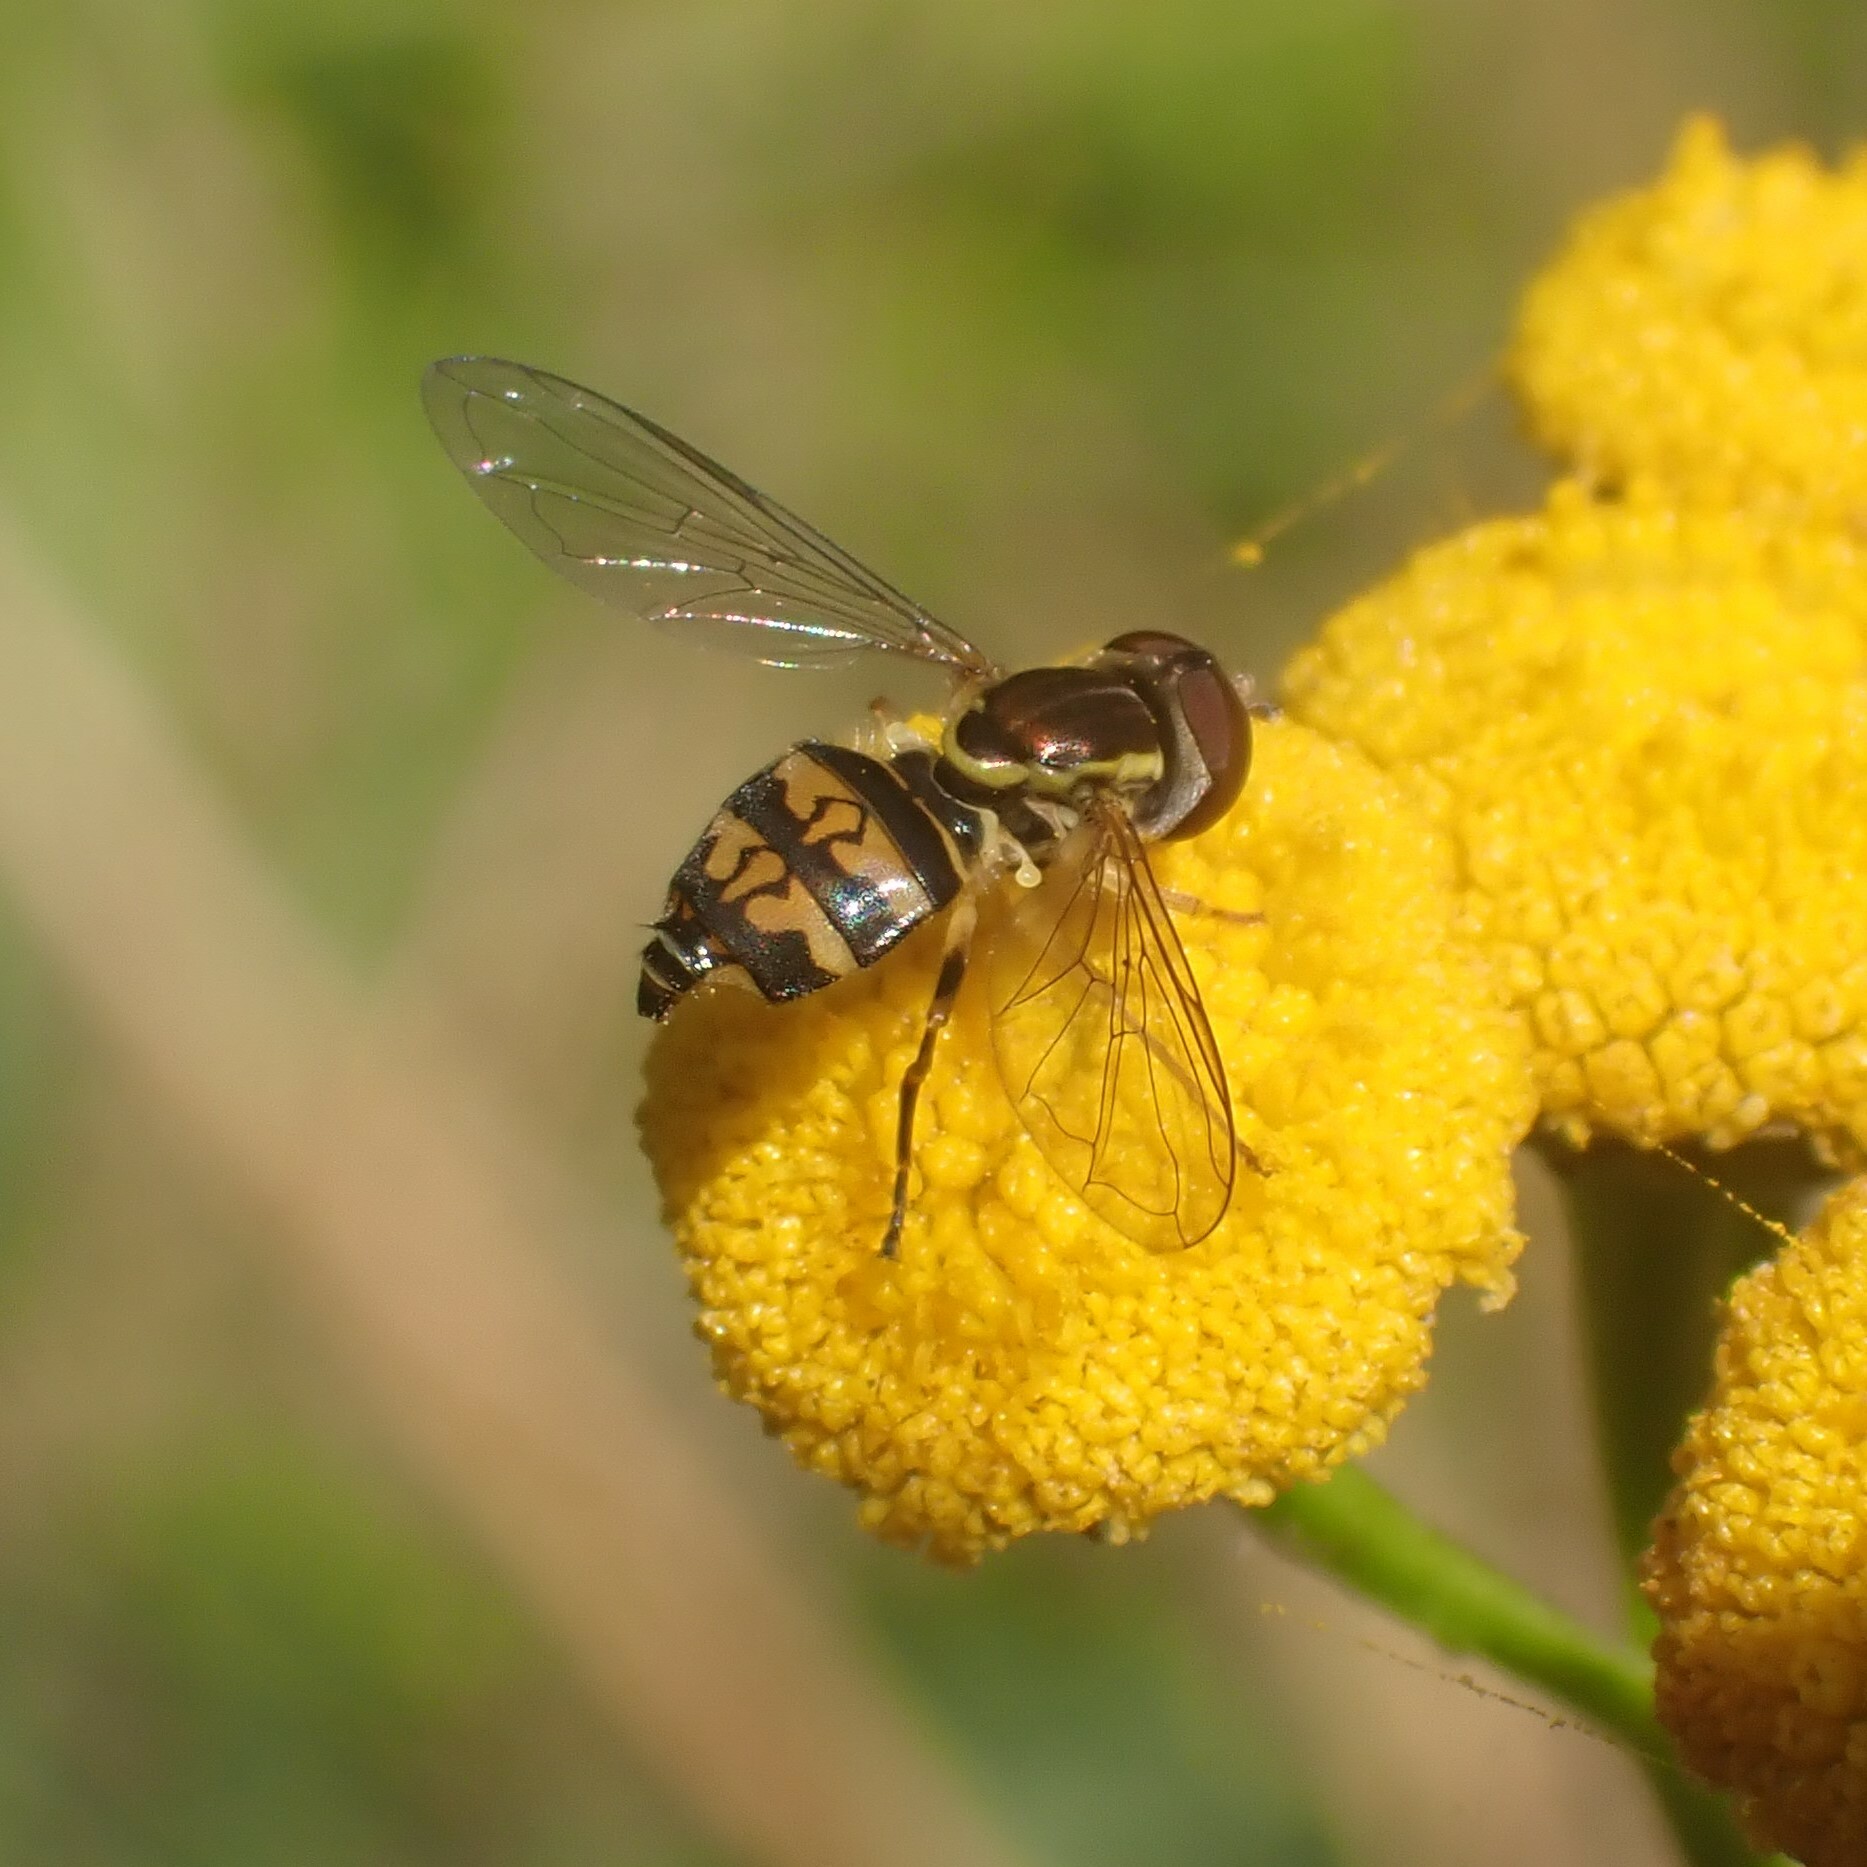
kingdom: Animalia
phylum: Arthropoda
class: Insecta
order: Diptera
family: Syrphidae
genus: Toxomerus
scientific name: Toxomerus occidentalis
